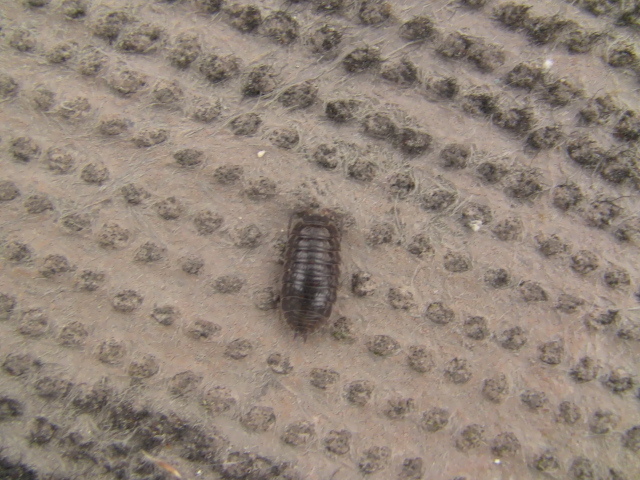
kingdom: Animalia
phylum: Arthropoda
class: Malacostraca
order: Isopoda
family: Trachelipodidae
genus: Trachelipus
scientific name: Trachelipus rathkii
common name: Isopod
